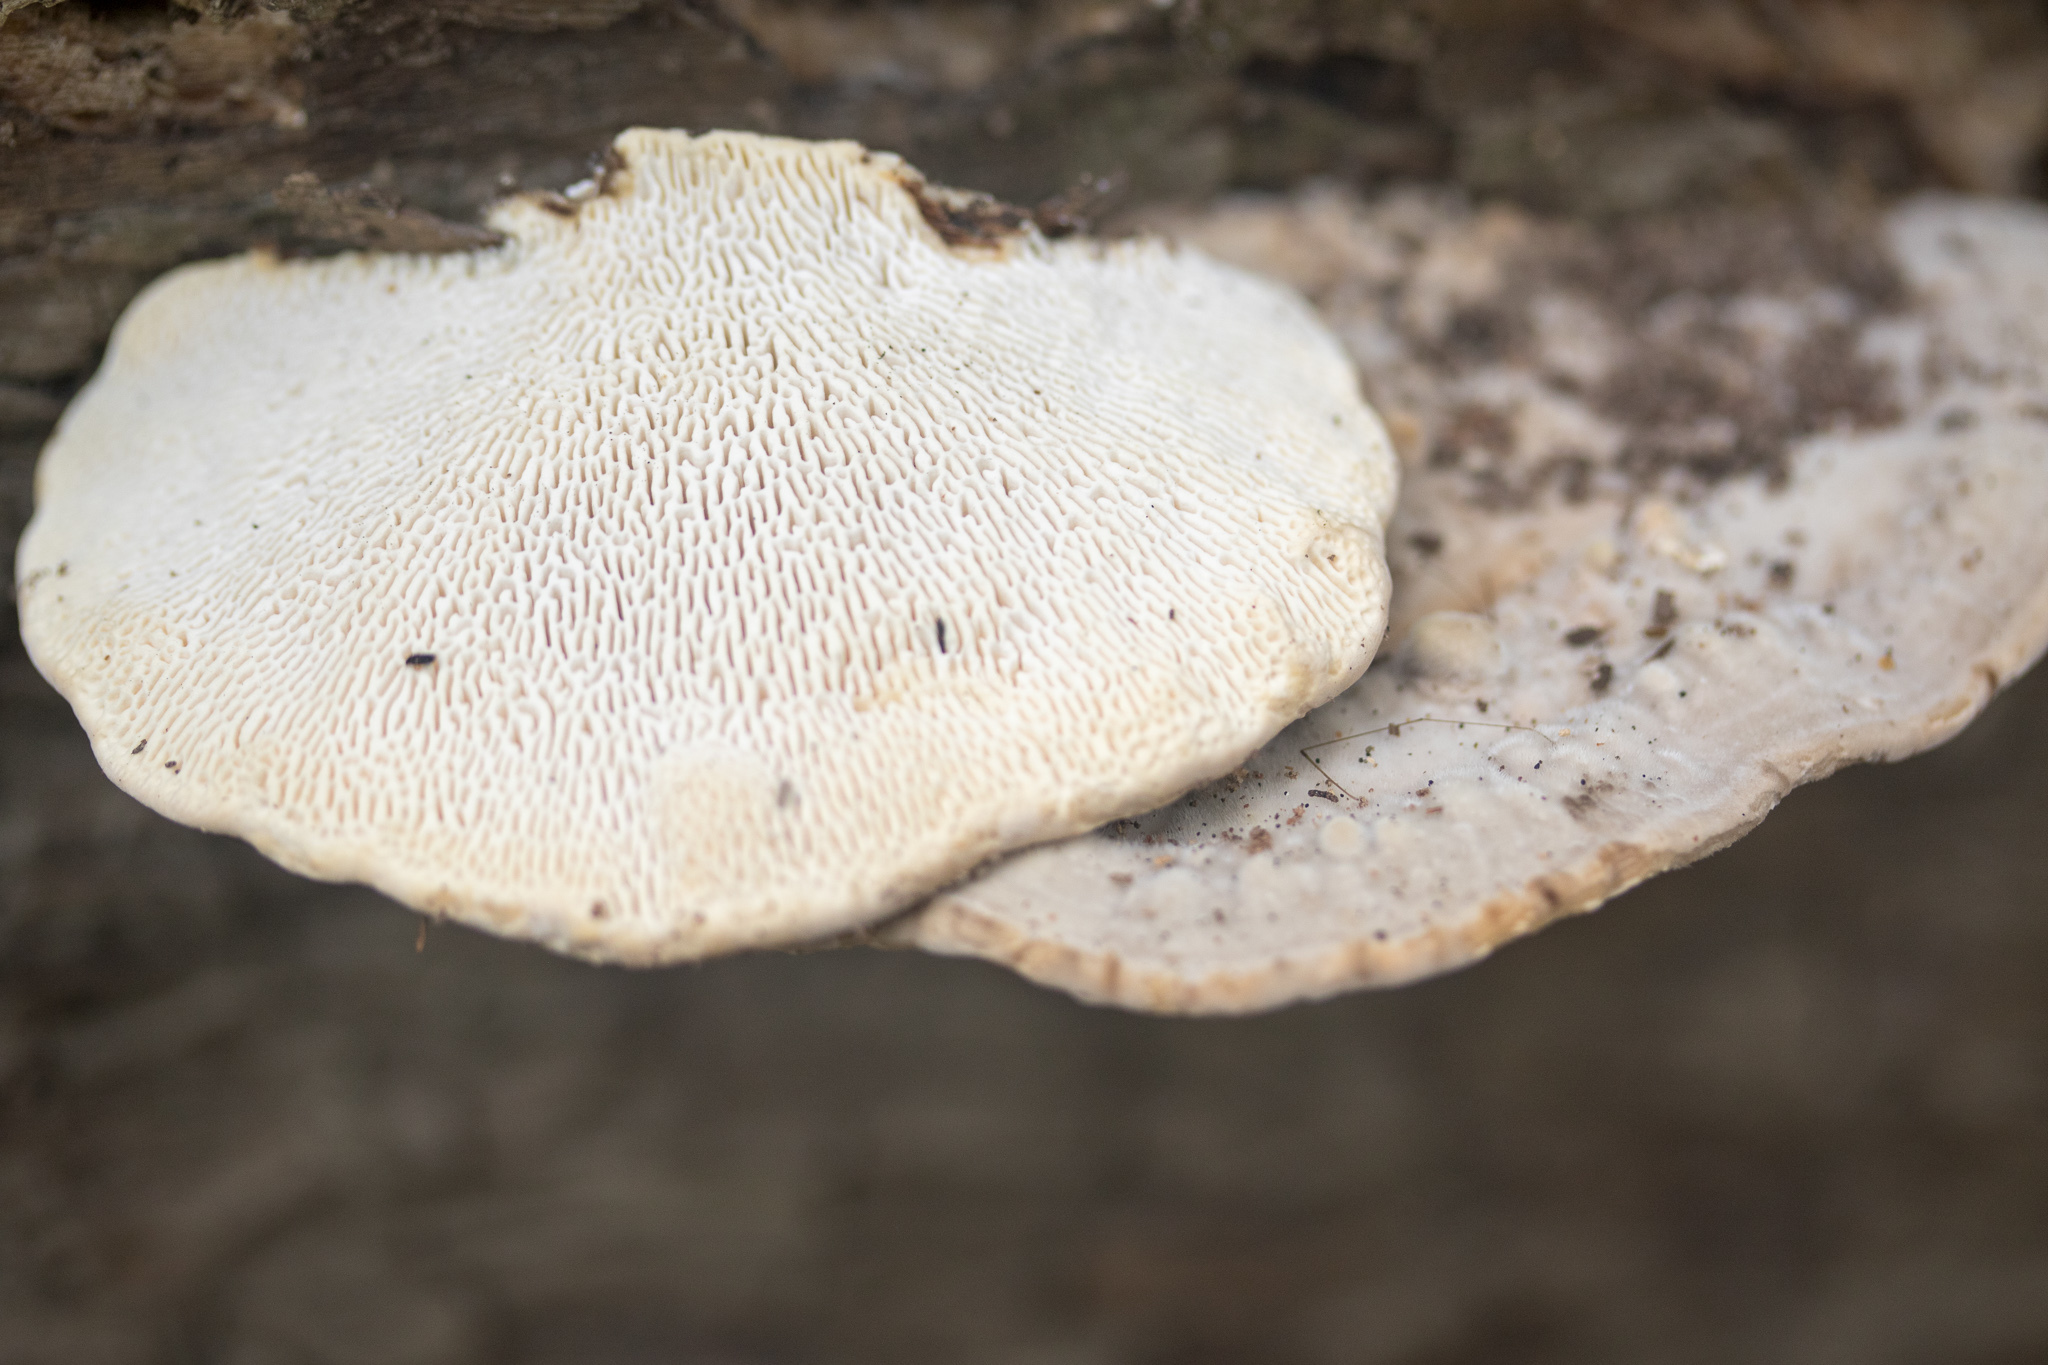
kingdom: Fungi
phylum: Basidiomycota
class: Agaricomycetes
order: Polyporales
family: Polyporaceae
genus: Trametes
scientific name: Trametes gibbosa
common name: Lumpy bracket
